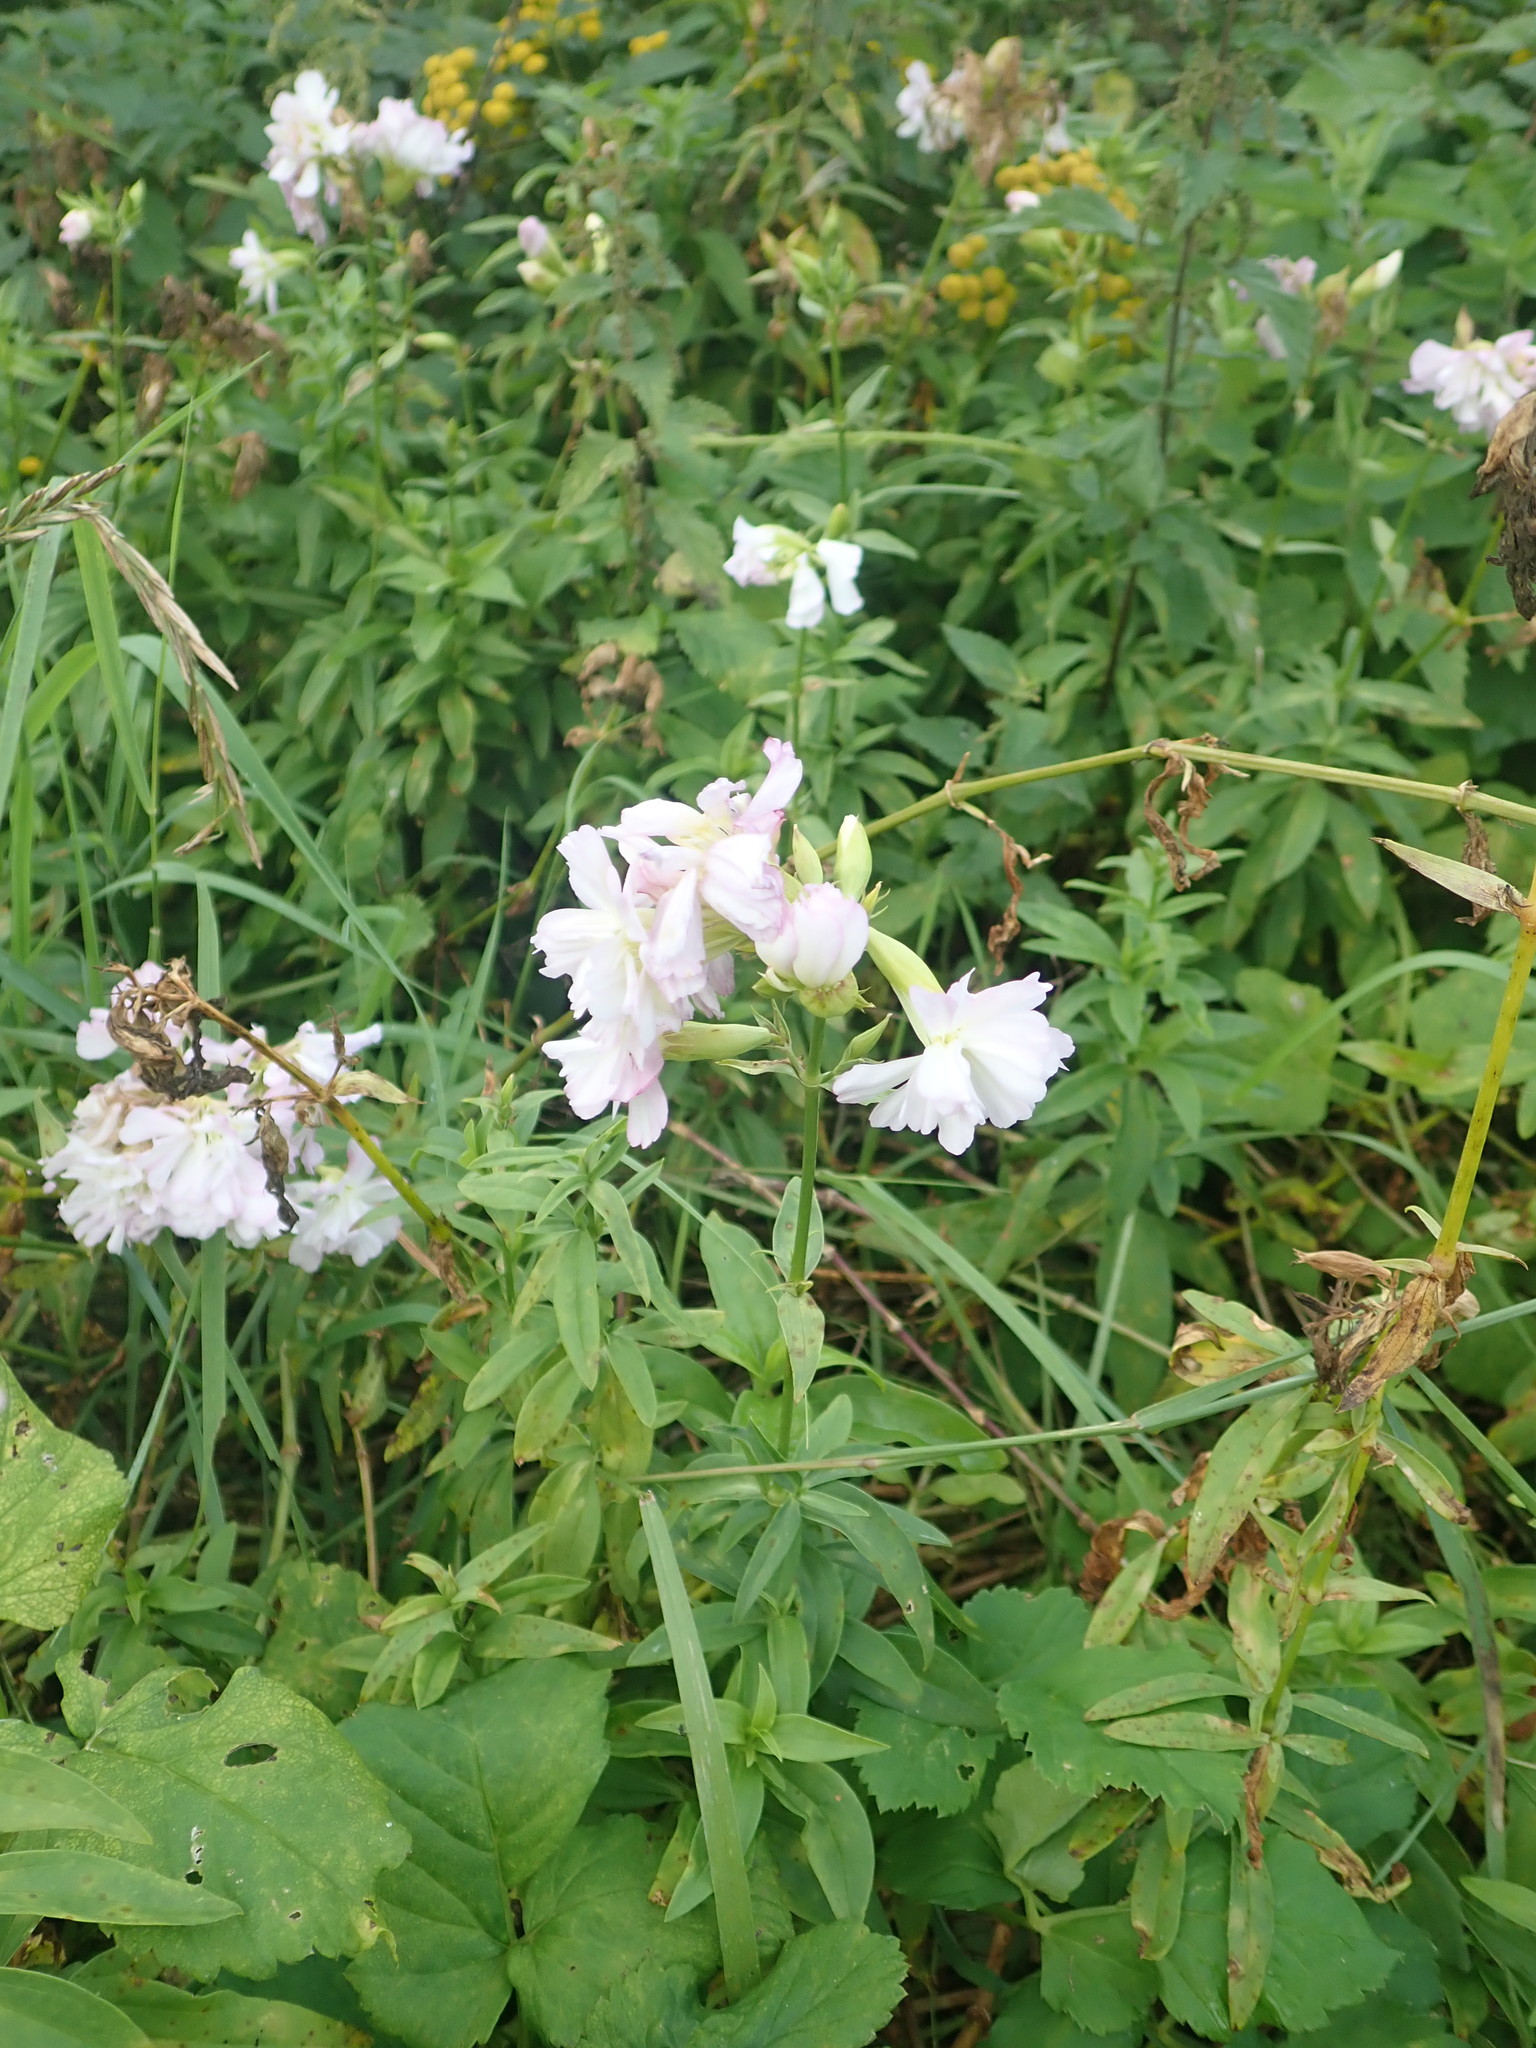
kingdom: Plantae
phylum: Tracheophyta
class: Magnoliopsida
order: Caryophyllales
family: Caryophyllaceae
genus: Saponaria
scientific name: Saponaria officinalis
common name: Soapwort
